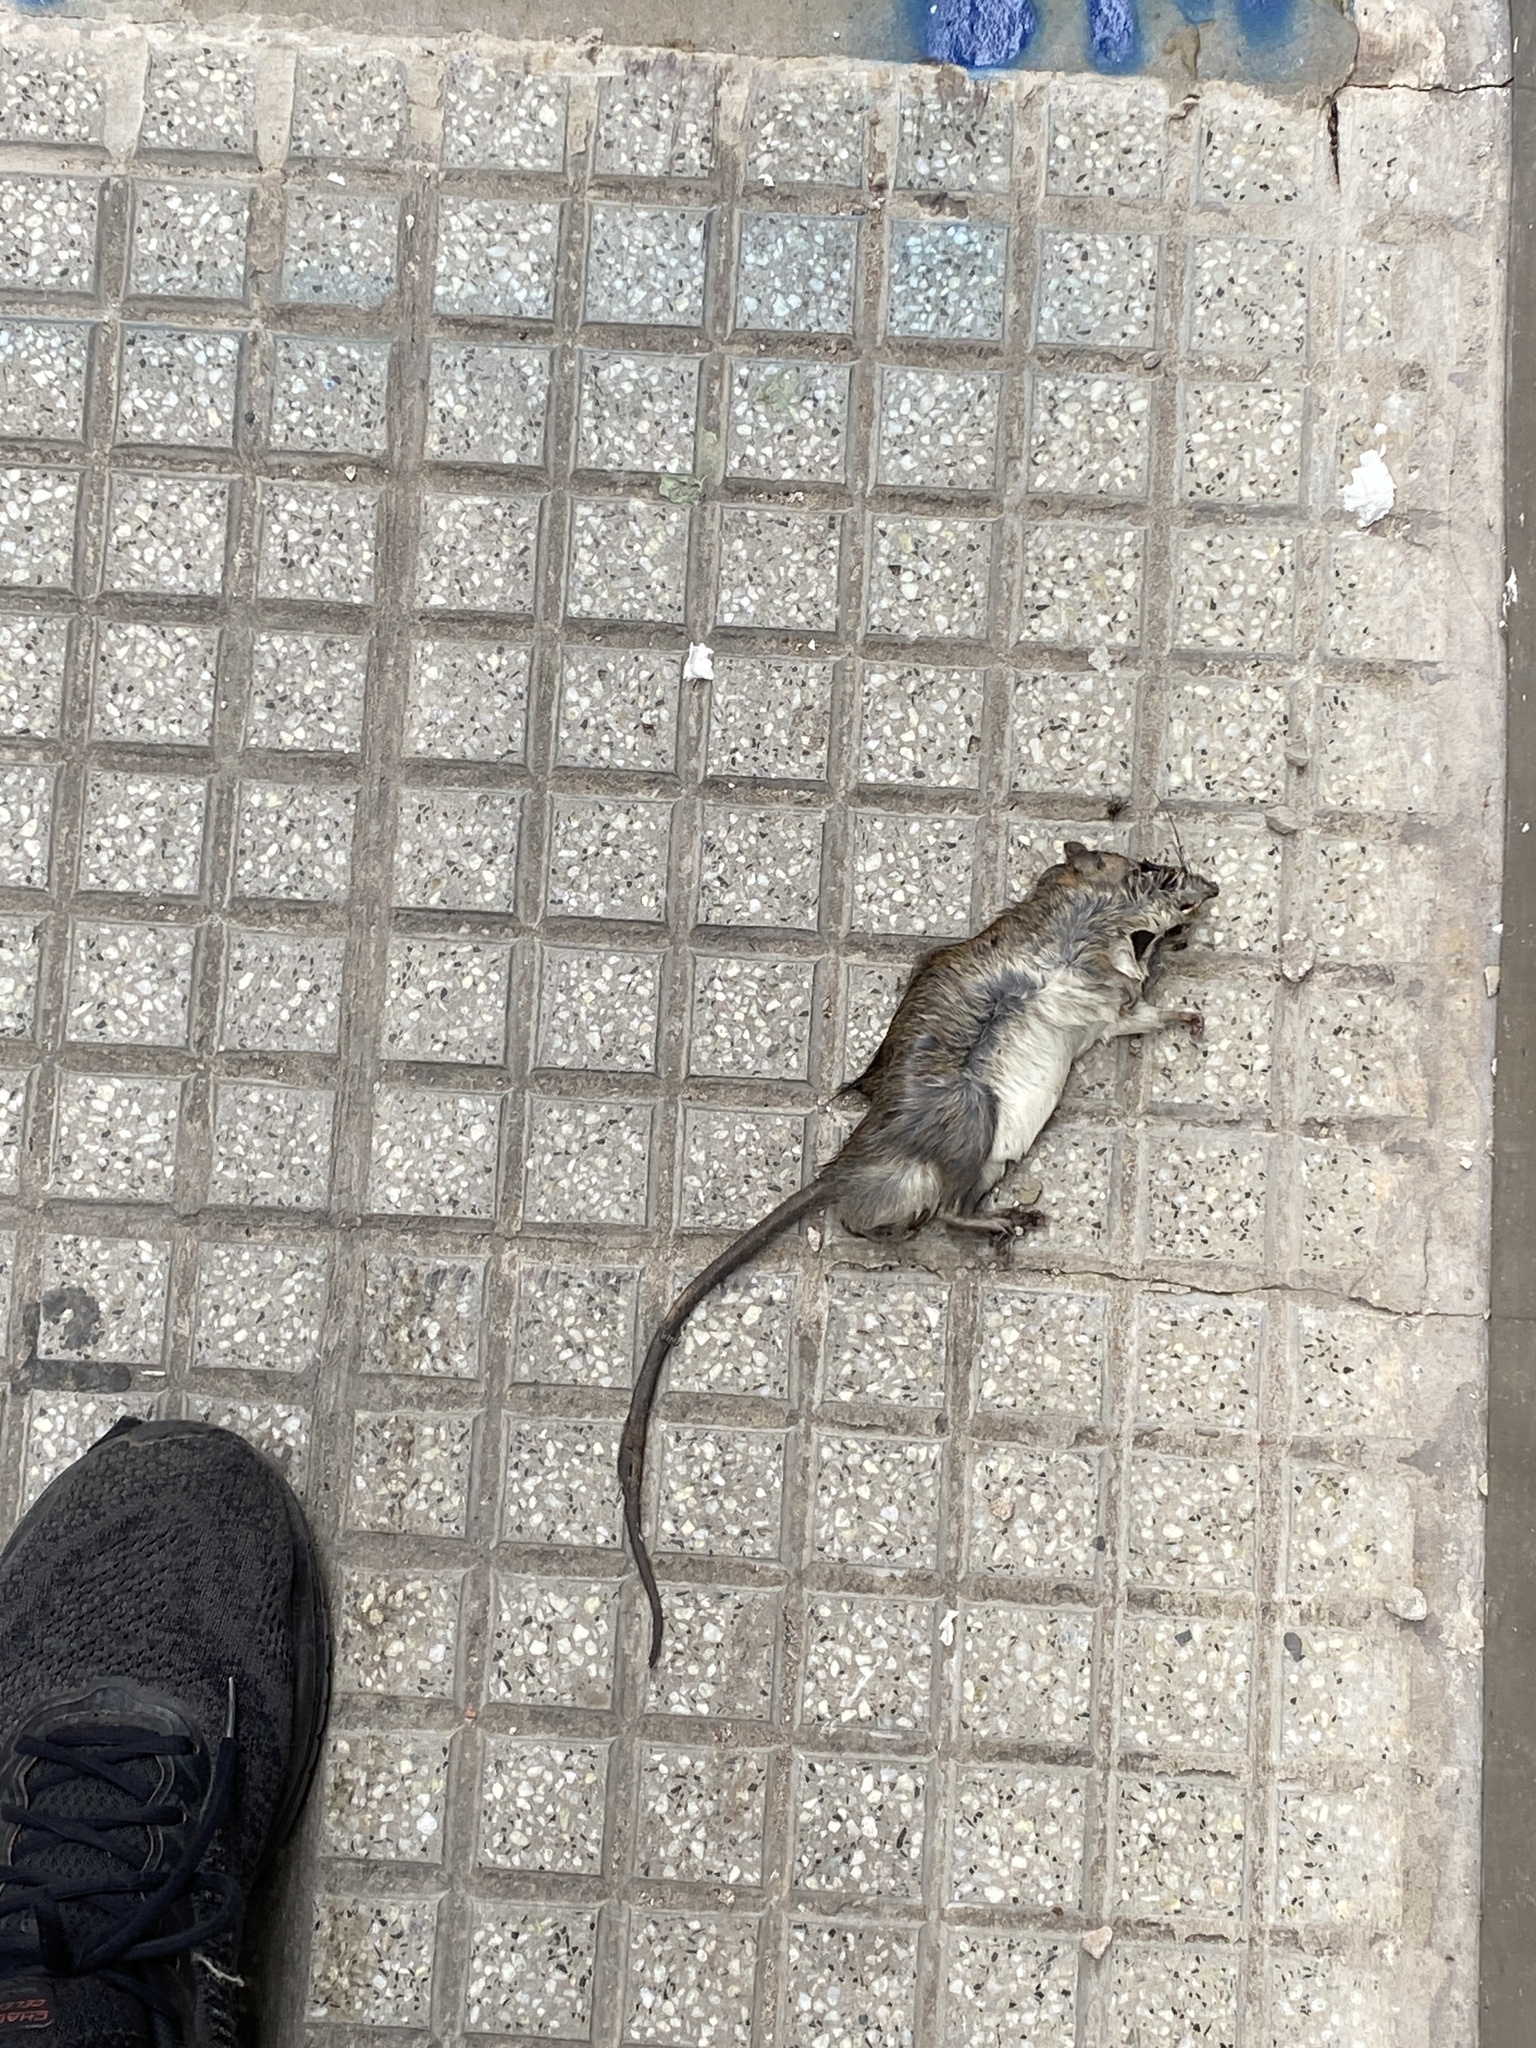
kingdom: Animalia
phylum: Chordata
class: Mammalia
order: Rodentia
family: Muridae
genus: Rattus
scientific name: Rattus rattus
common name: Black rat
